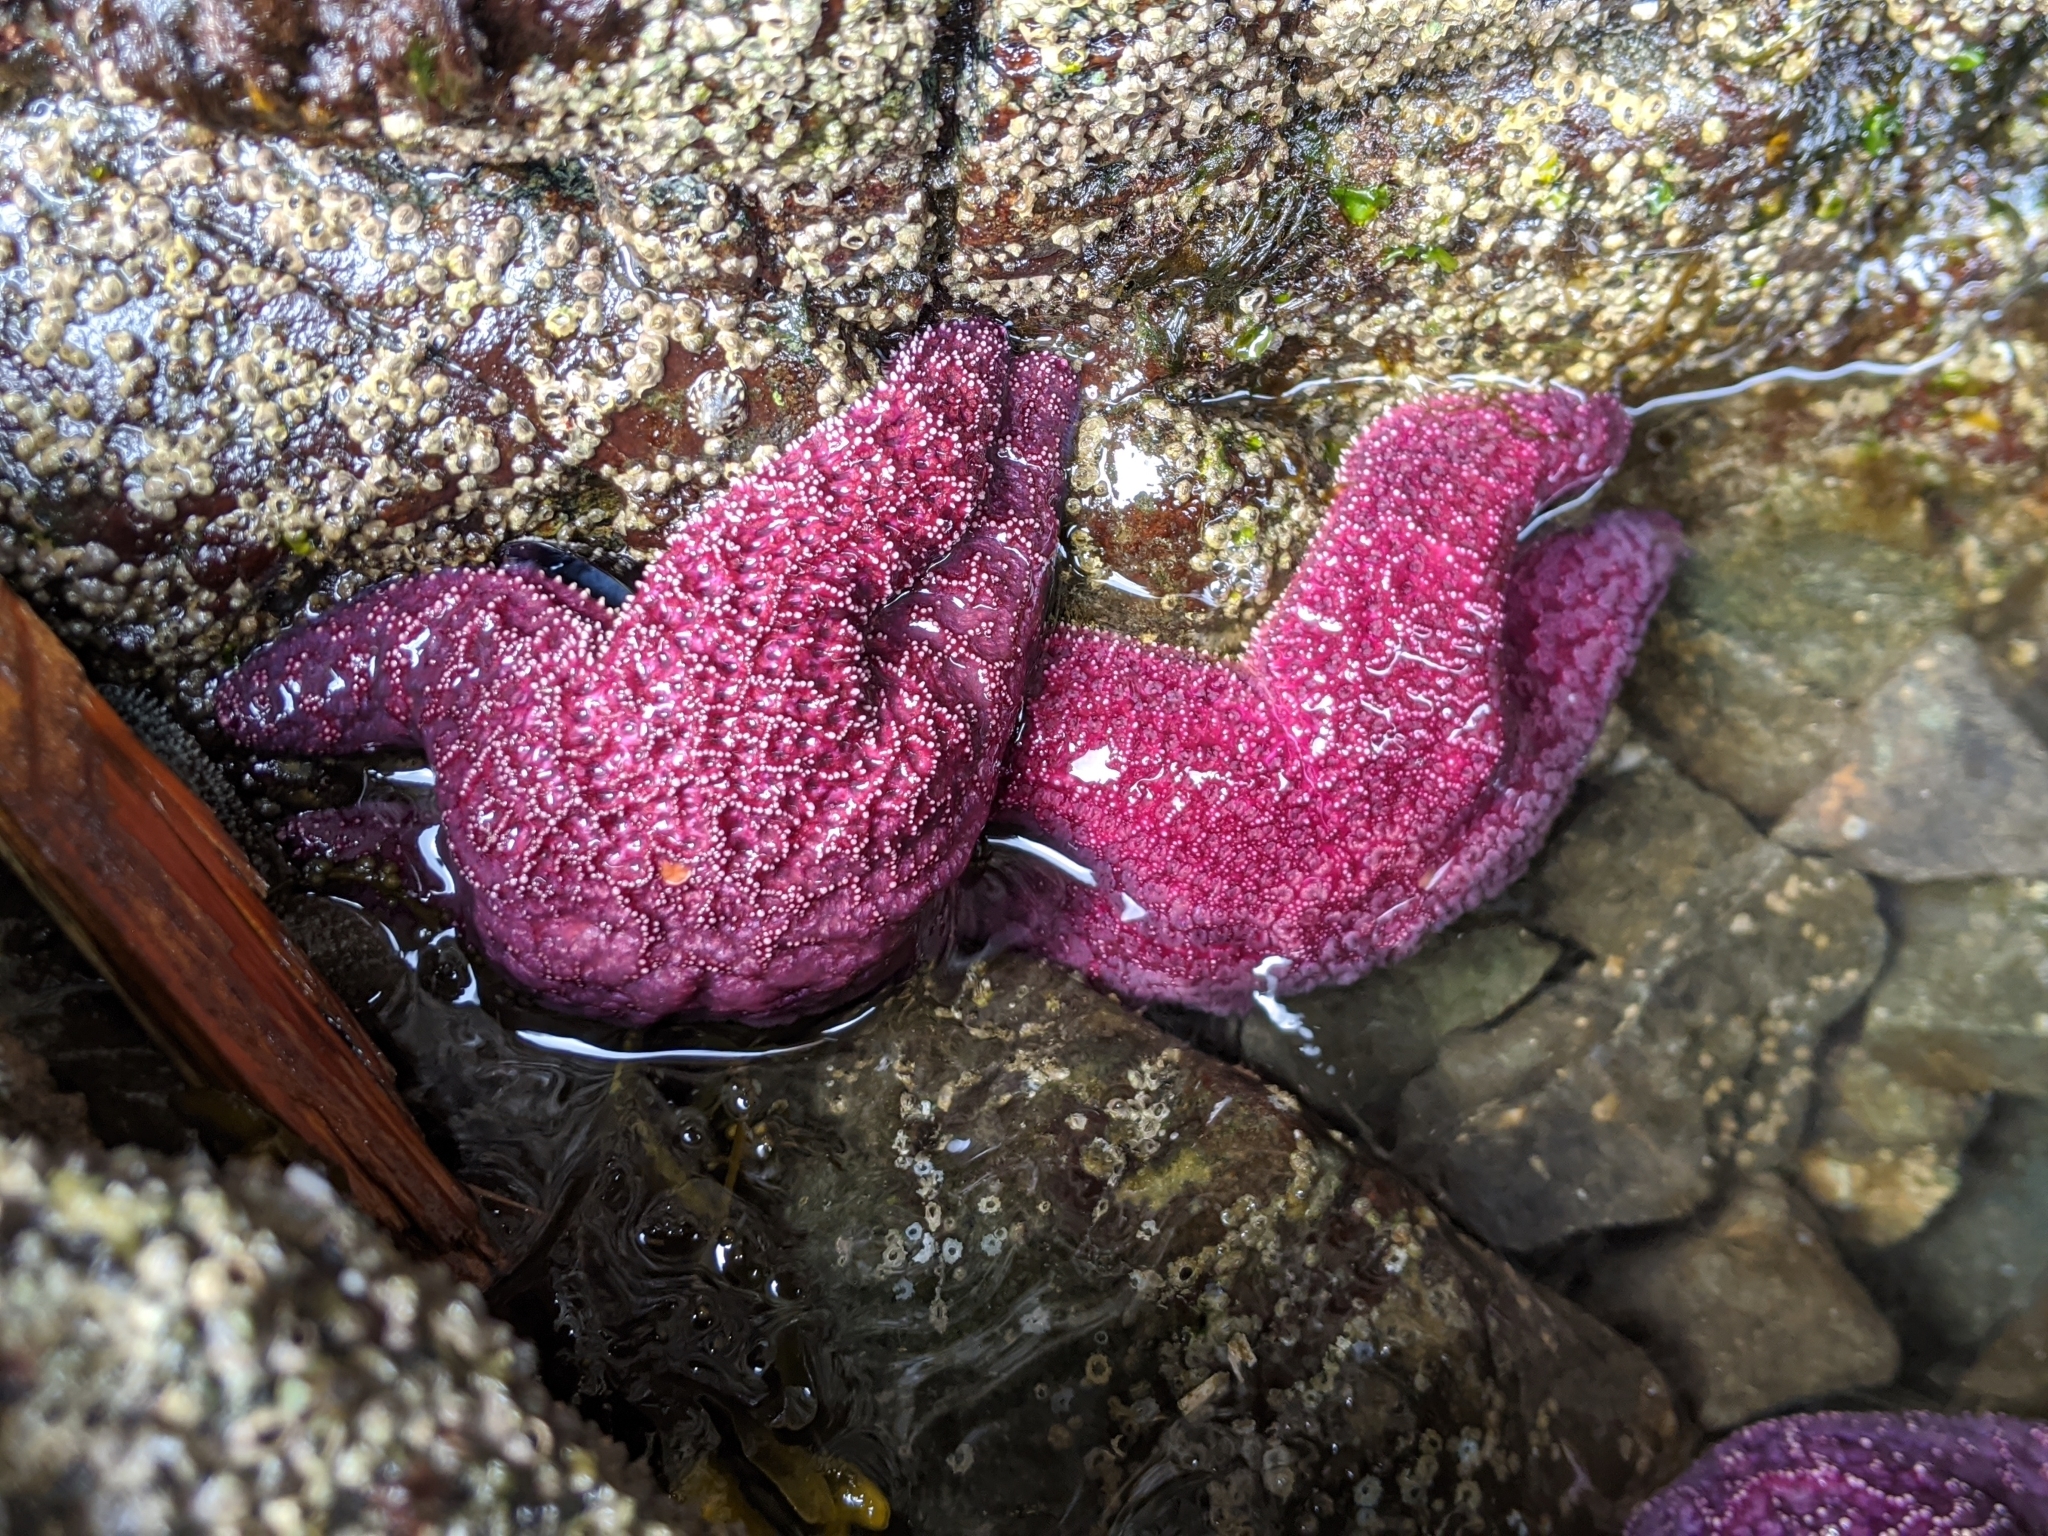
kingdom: Animalia
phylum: Echinodermata
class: Asteroidea
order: Forcipulatida
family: Asteriidae
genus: Pisaster
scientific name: Pisaster ochraceus
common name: Ochre stars
